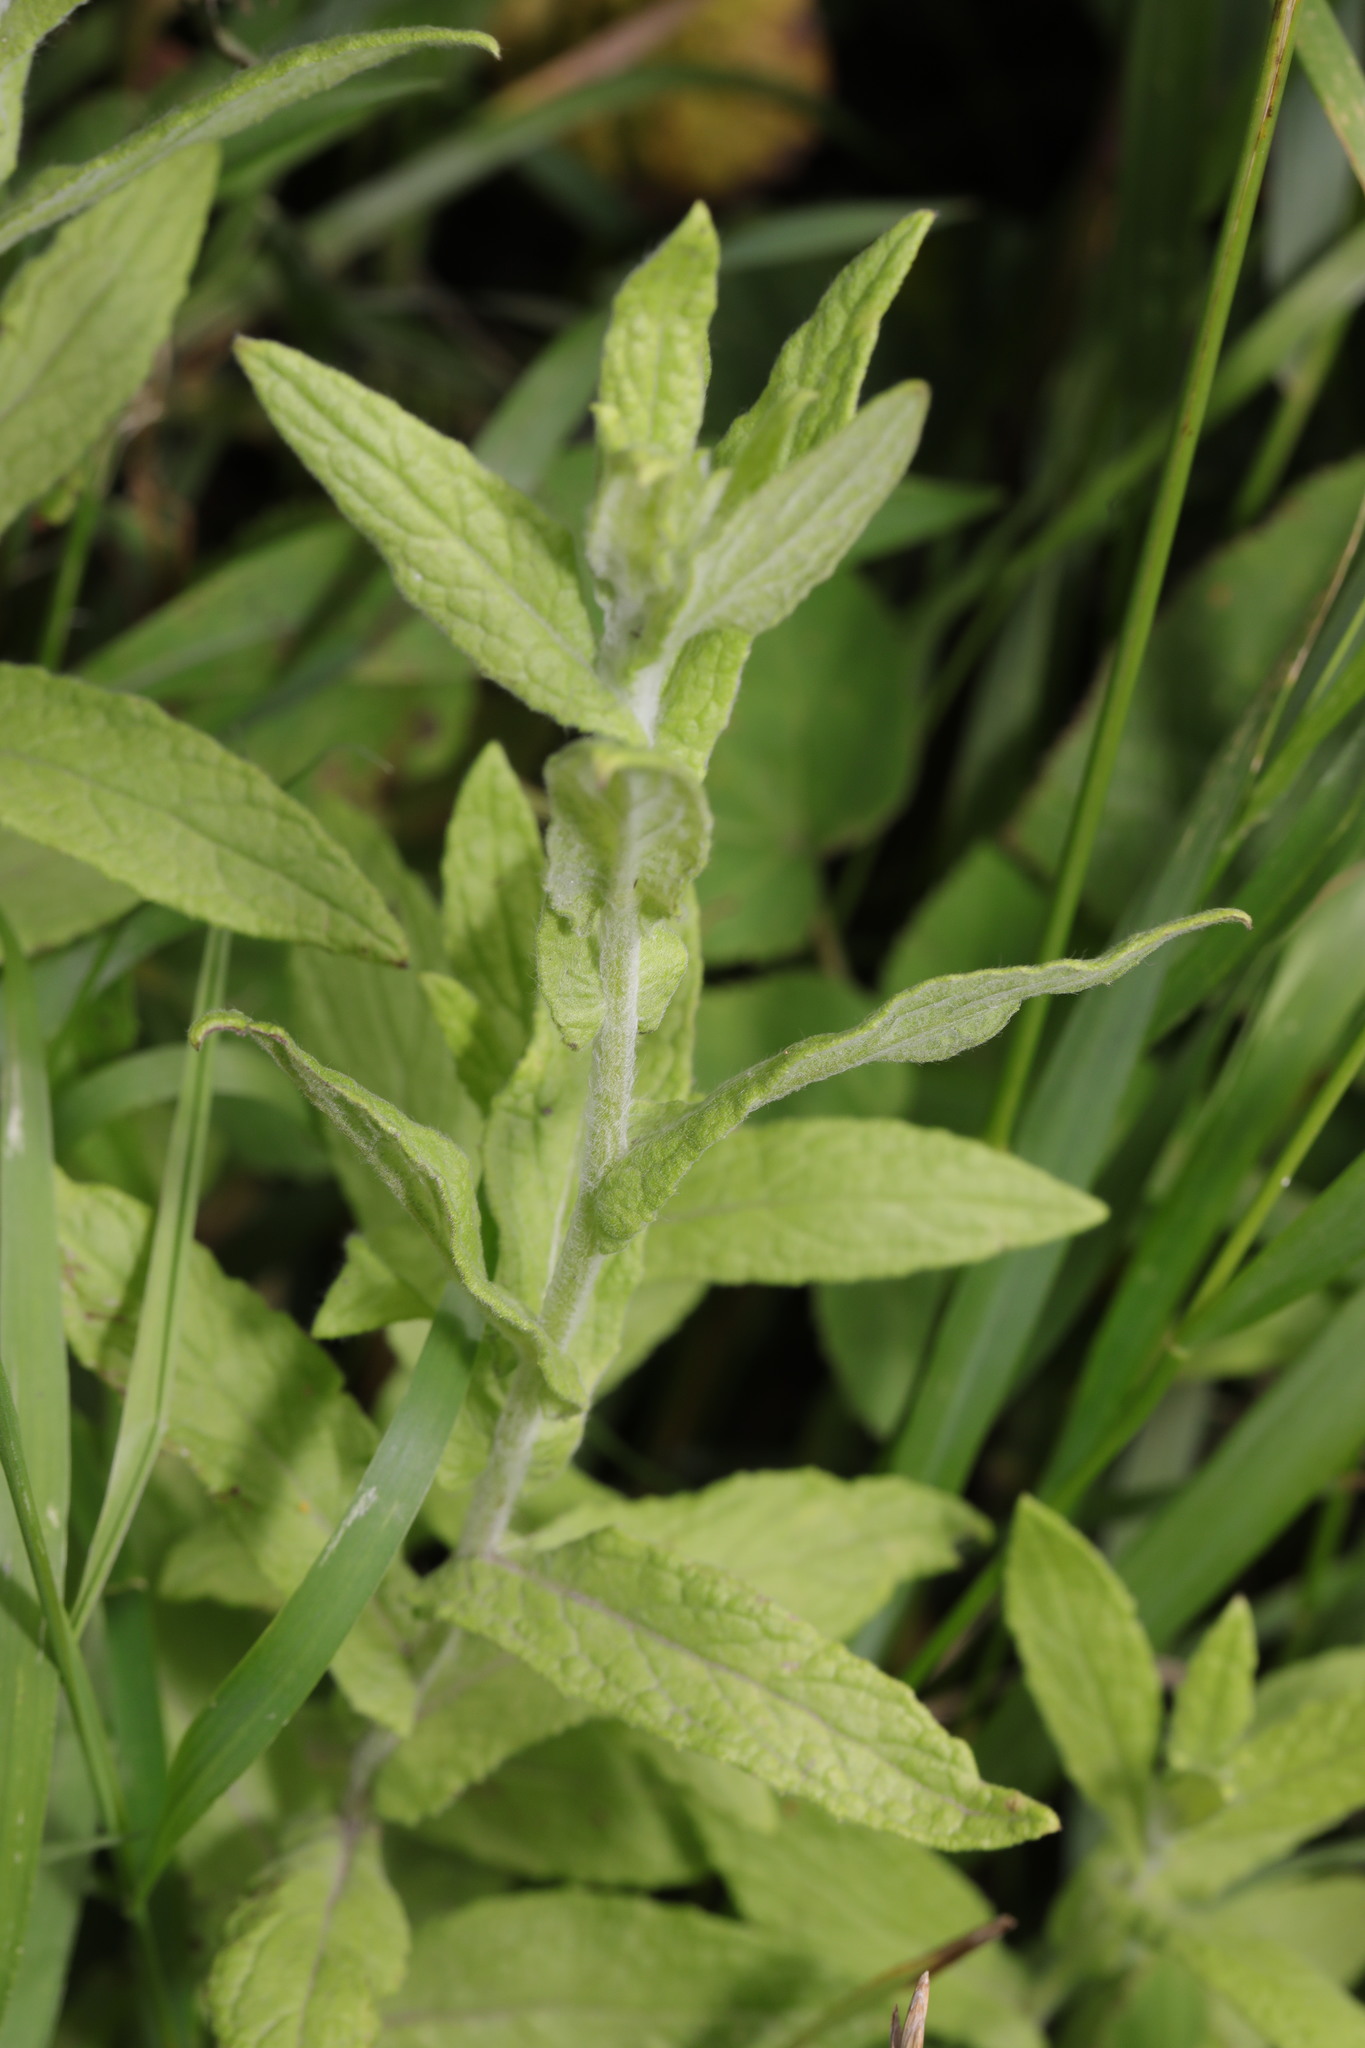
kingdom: Plantae
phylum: Tracheophyta
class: Magnoliopsida
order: Asterales
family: Asteraceae
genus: Pulicaria
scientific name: Pulicaria dysenterica
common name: Common fleabane
